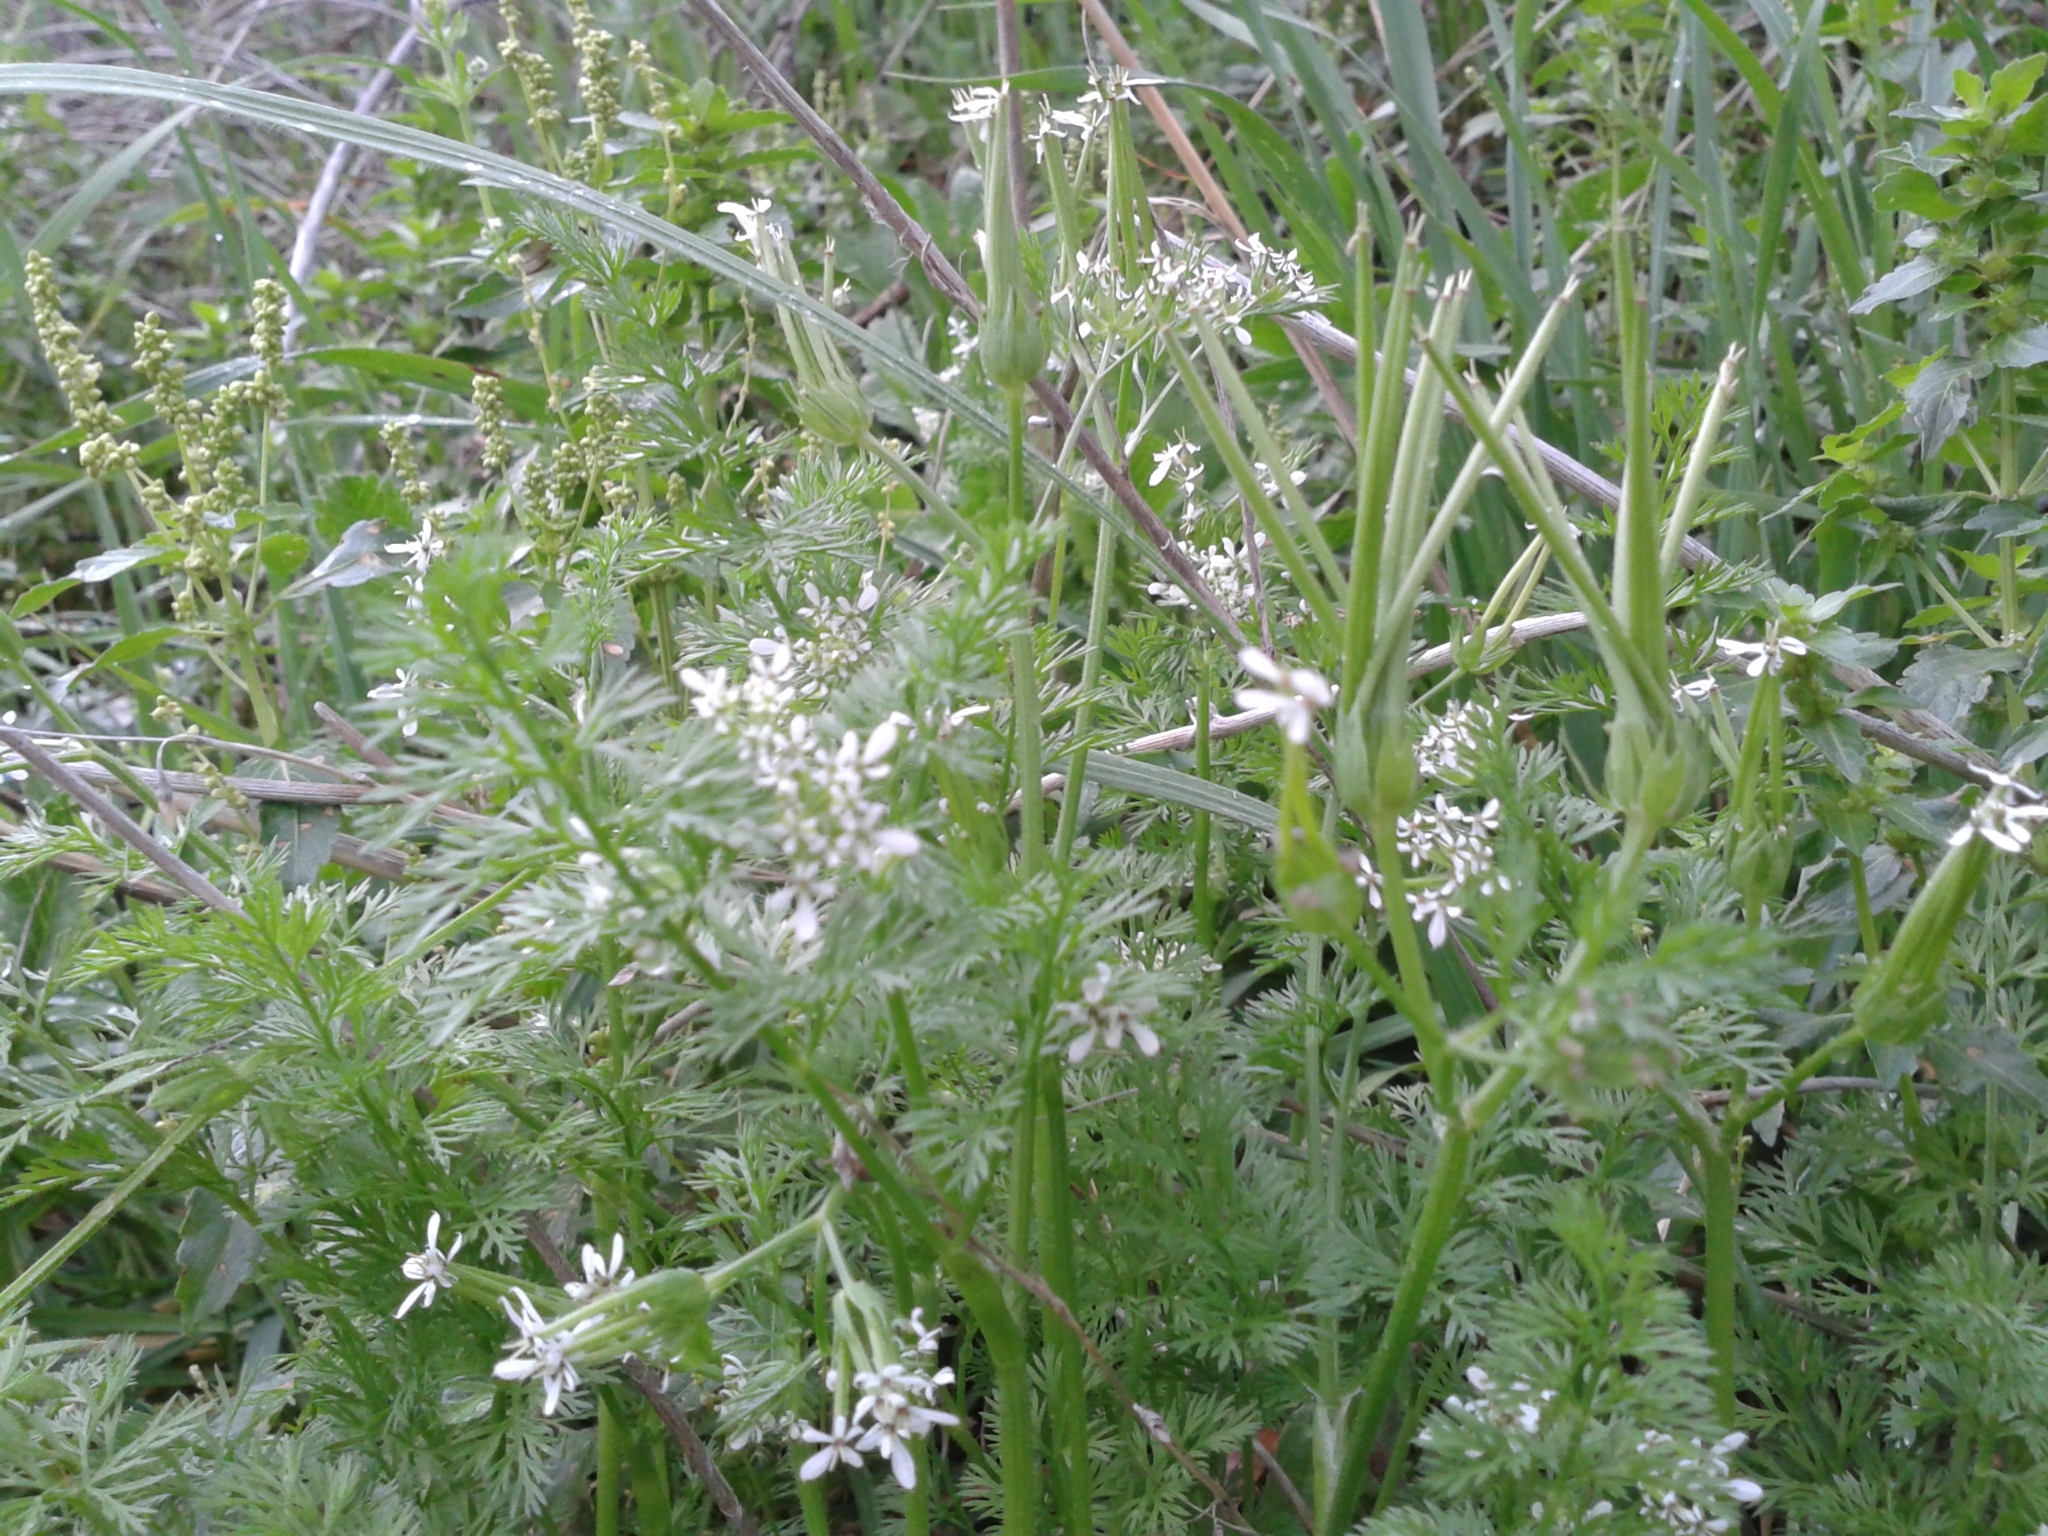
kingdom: Plantae
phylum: Tracheophyta
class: Magnoliopsida
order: Apiales
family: Apiaceae
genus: Scandix
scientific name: Scandix pecten-veneris
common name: Shepherd's-needle
